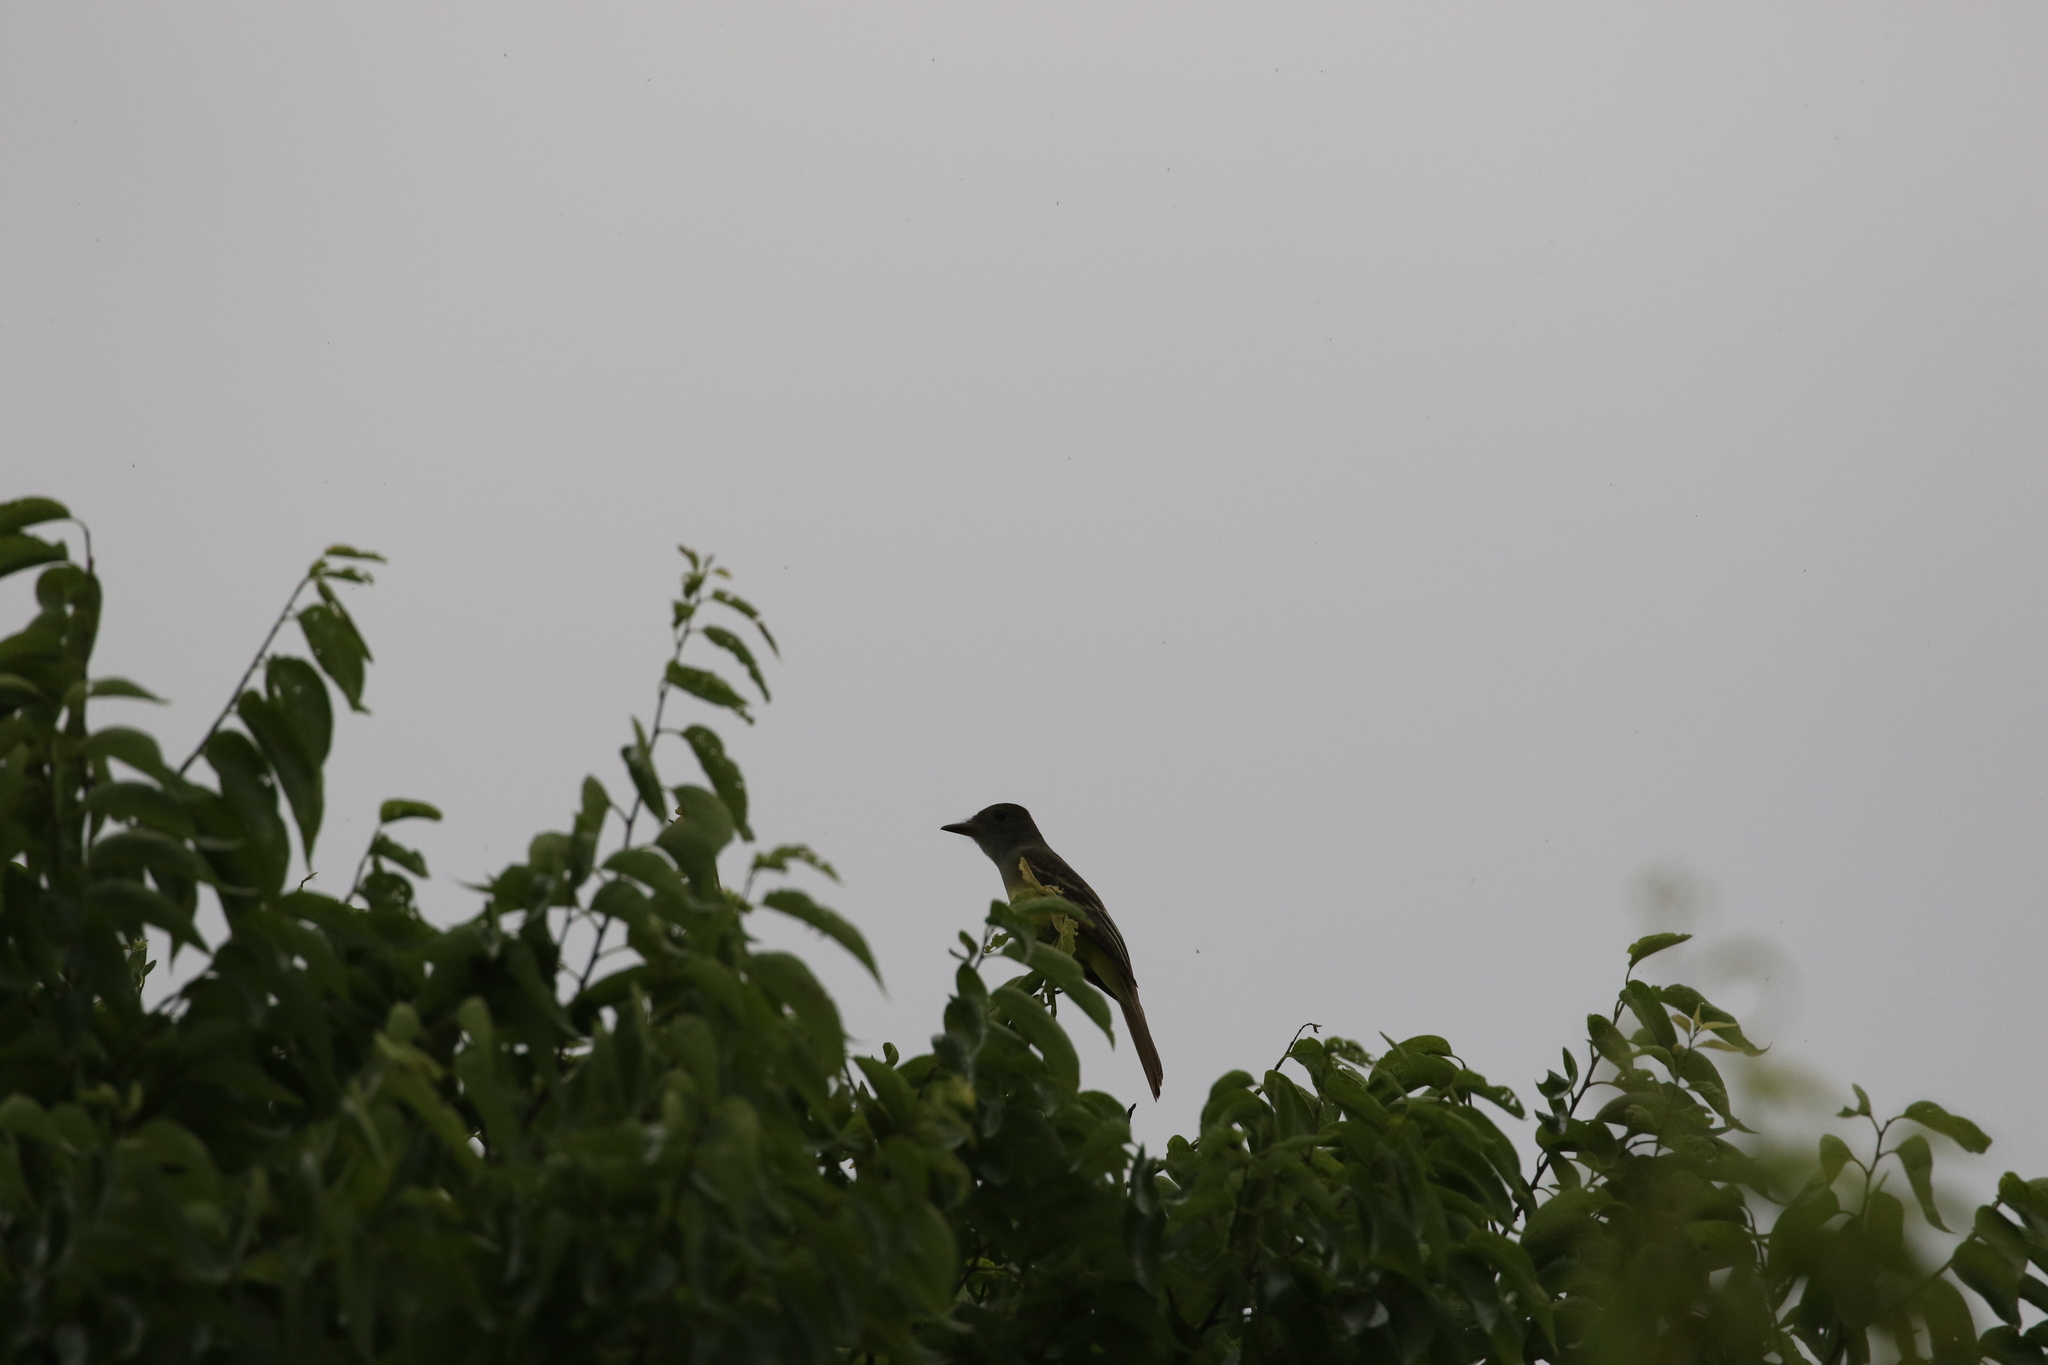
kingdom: Animalia
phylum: Chordata
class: Aves
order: Passeriformes
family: Tyrannidae
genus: Myiarchus
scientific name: Myiarchus crinitus
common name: Great crested flycatcher
